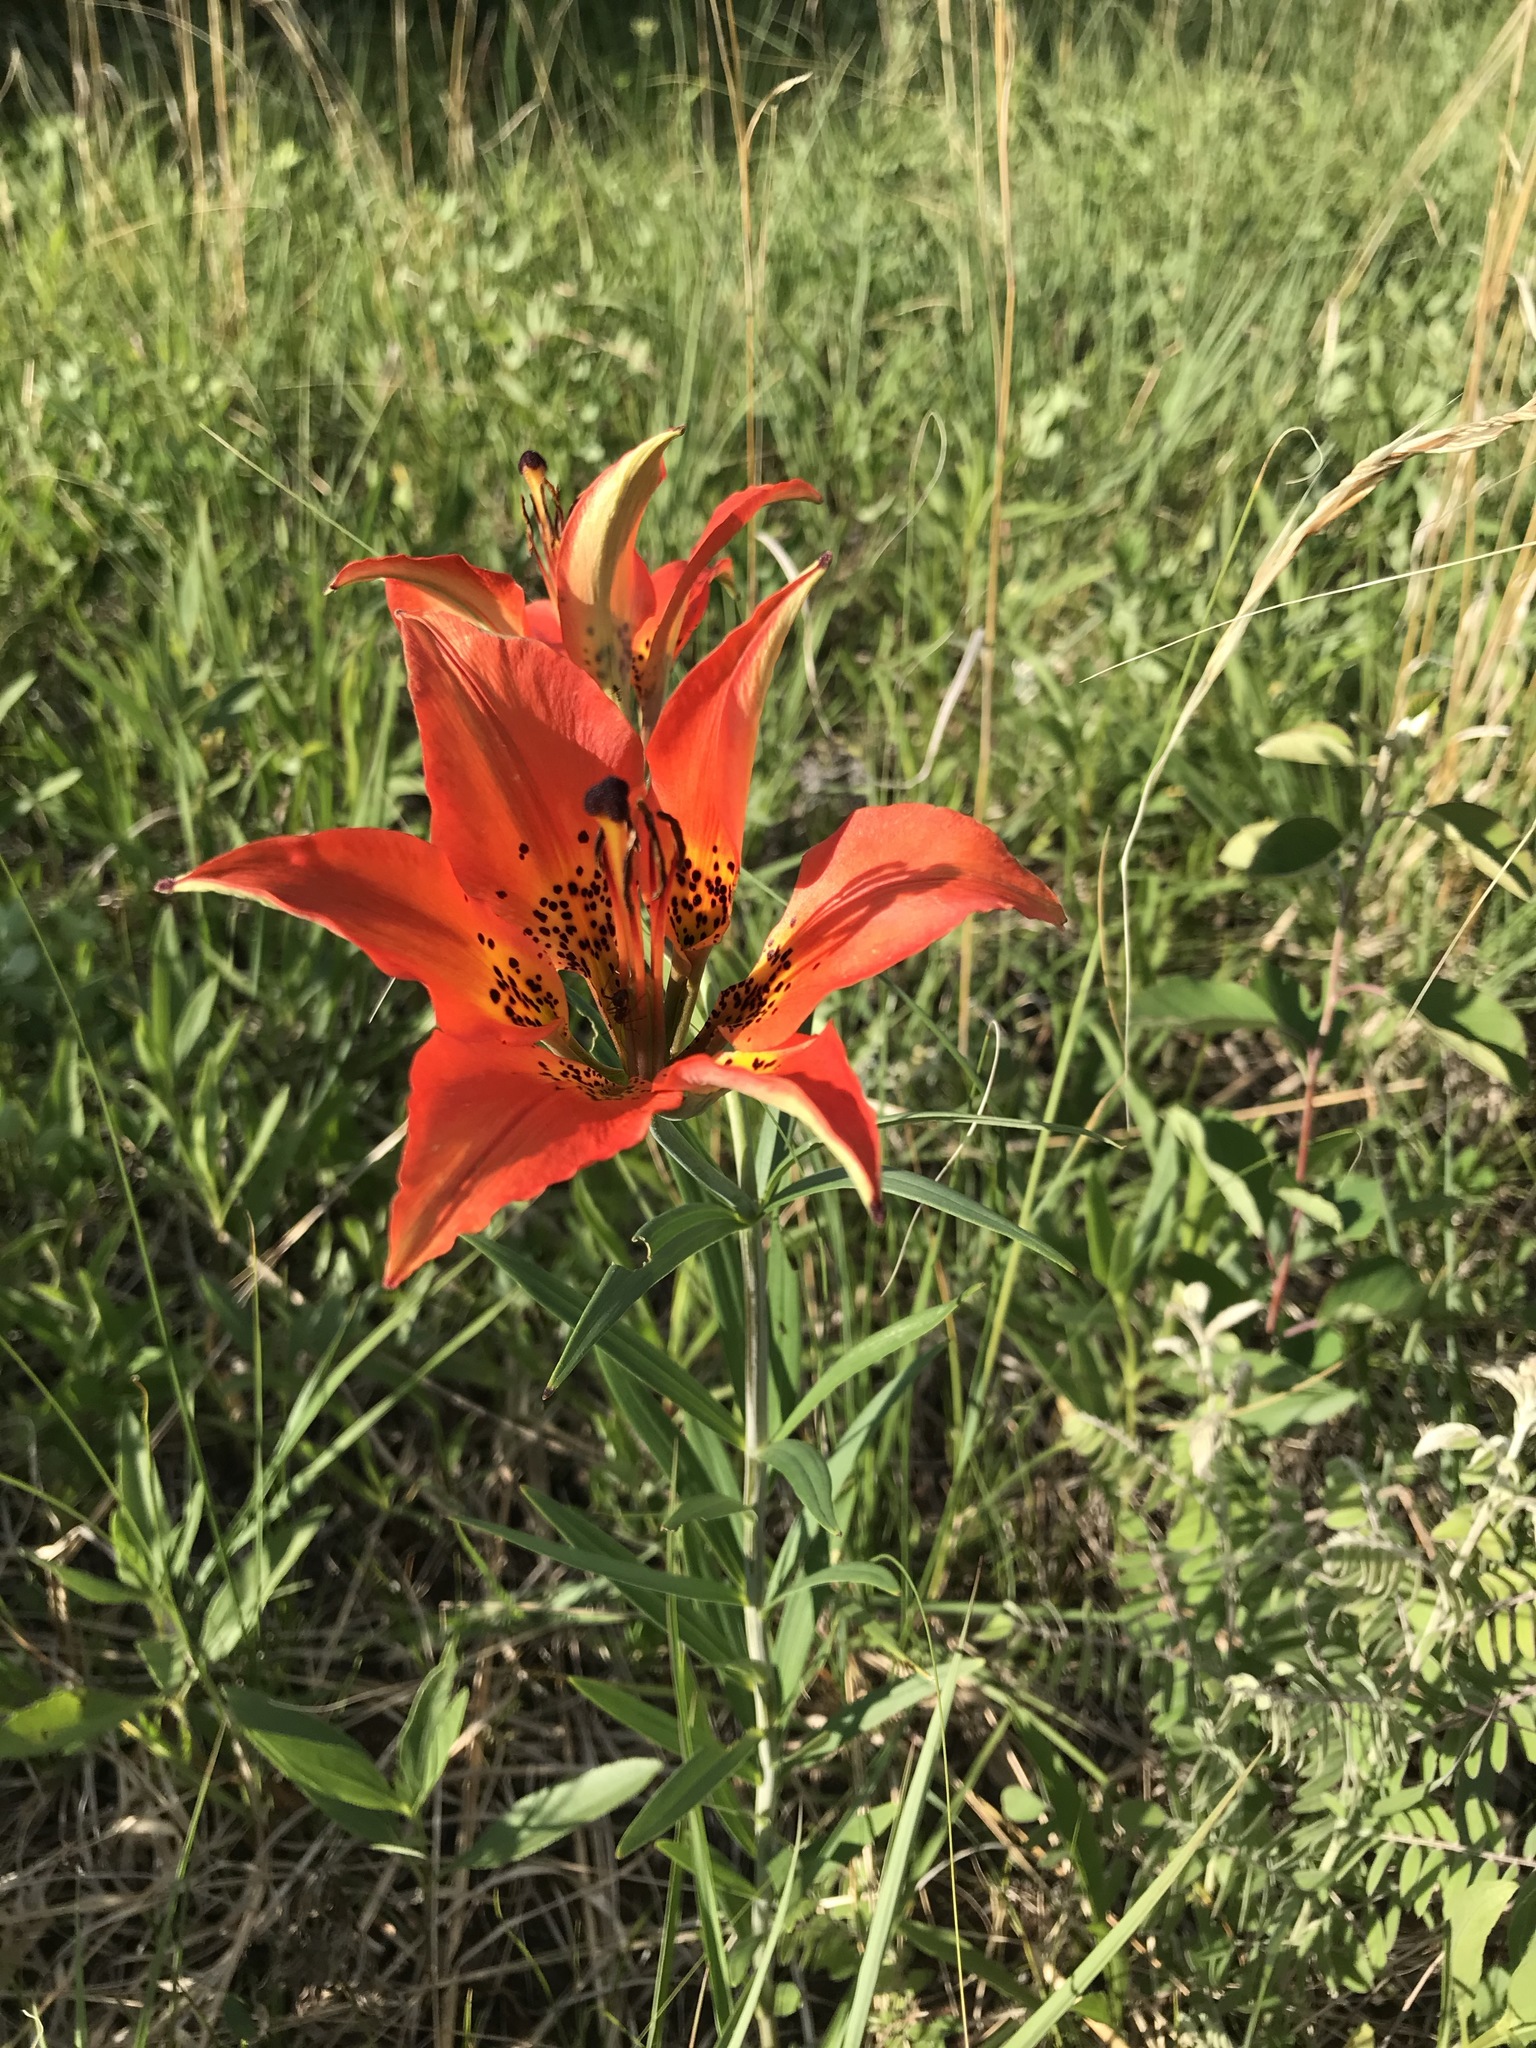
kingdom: Plantae
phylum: Tracheophyta
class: Liliopsida
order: Liliales
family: Liliaceae
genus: Lilium
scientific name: Lilium philadelphicum
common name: Red lily
